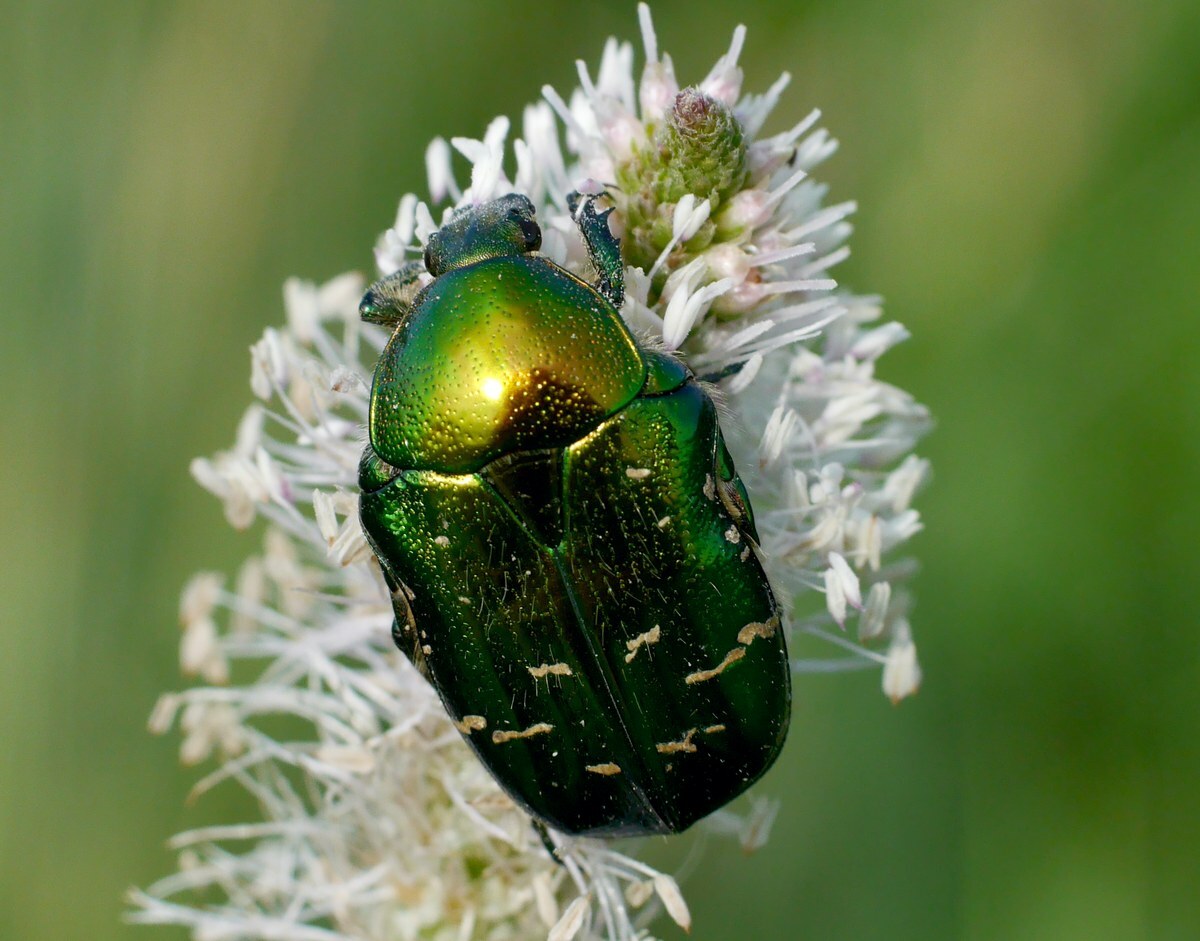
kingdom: Animalia
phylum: Arthropoda
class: Insecta
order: Coleoptera
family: Scarabaeidae
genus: Cetonia
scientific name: Cetonia aurata
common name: Rose chafer
